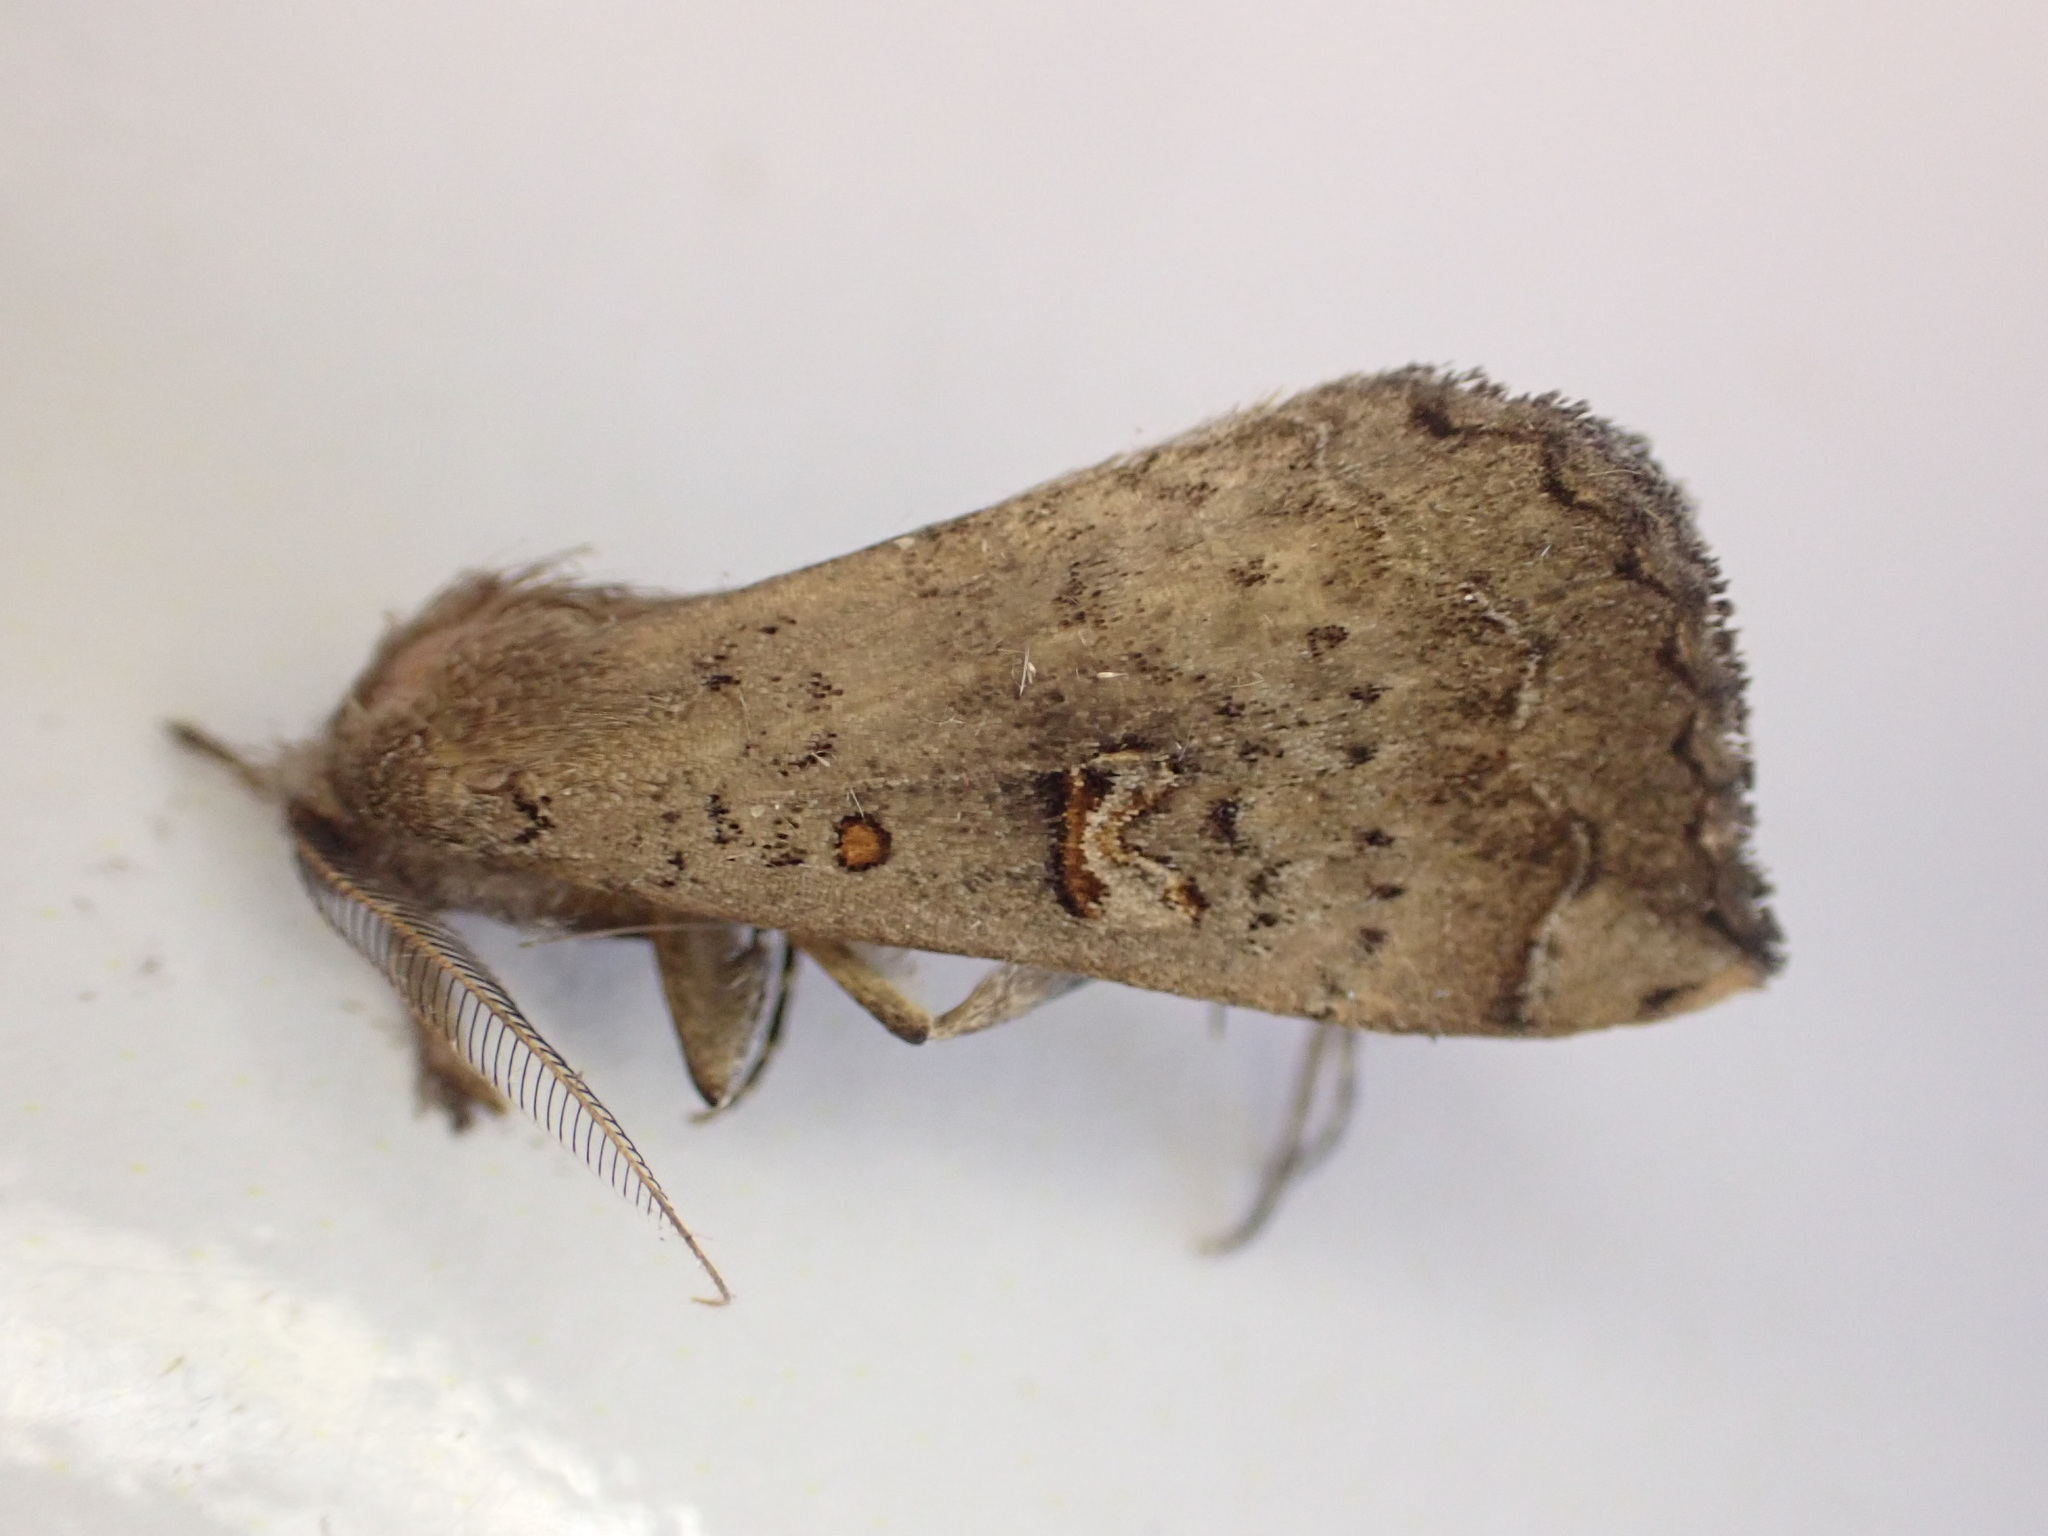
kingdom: Animalia
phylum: Arthropoda
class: Insecta
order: Lepidoptera
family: Erebidae
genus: Rhapsa
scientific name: Rhapsa scotosialis
